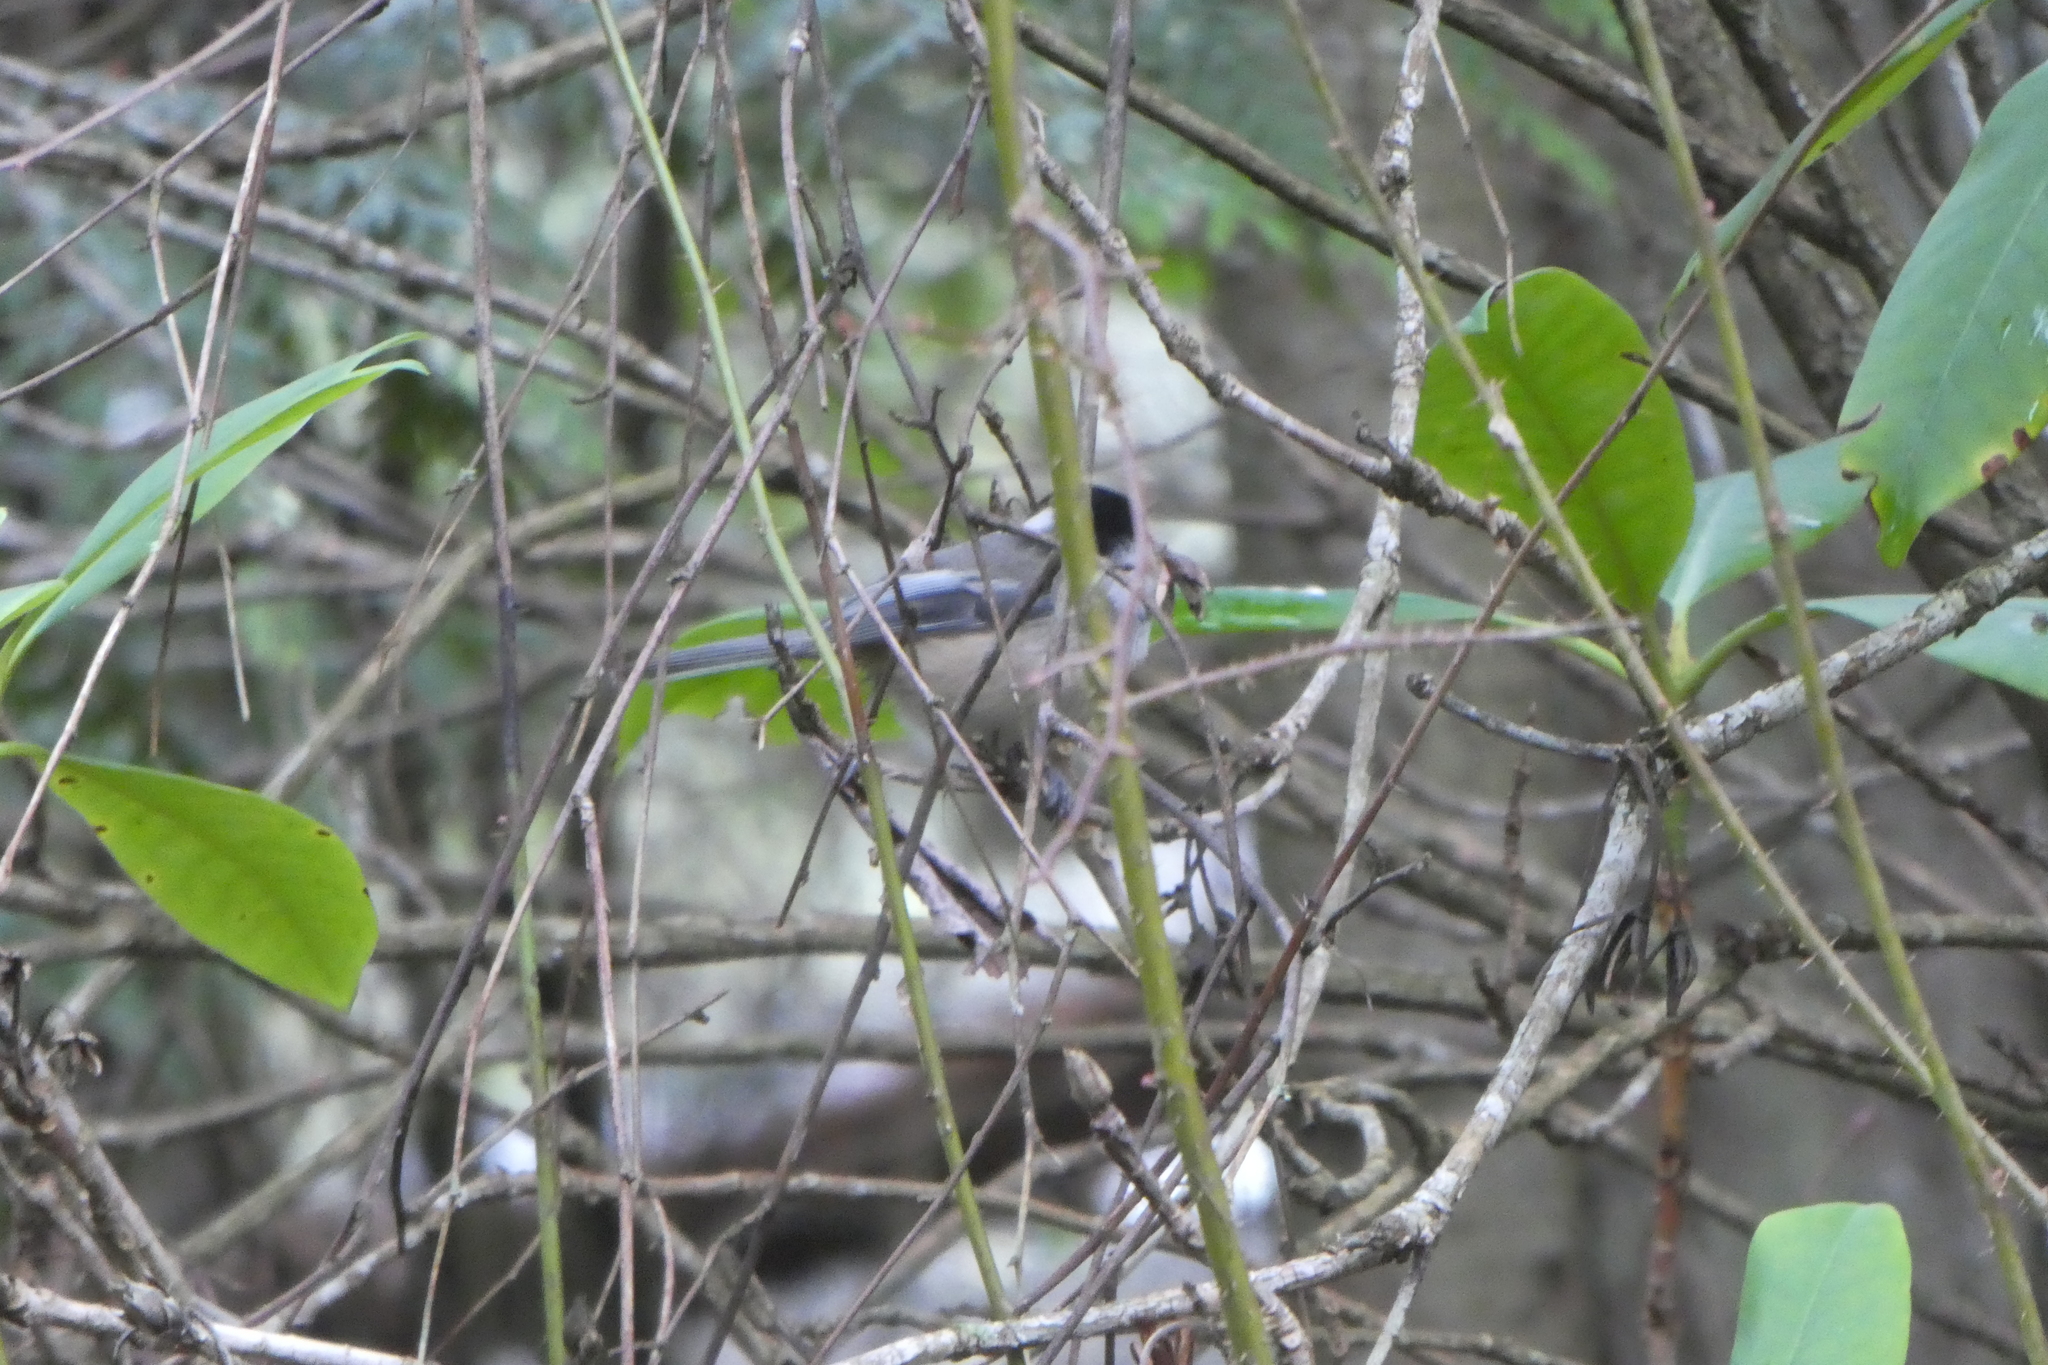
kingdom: Animalia
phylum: Chordata
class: Aves
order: Passeriformes
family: Paridae
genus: Poecile
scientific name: Poecile atricapillus
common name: Black-capped chickadee
